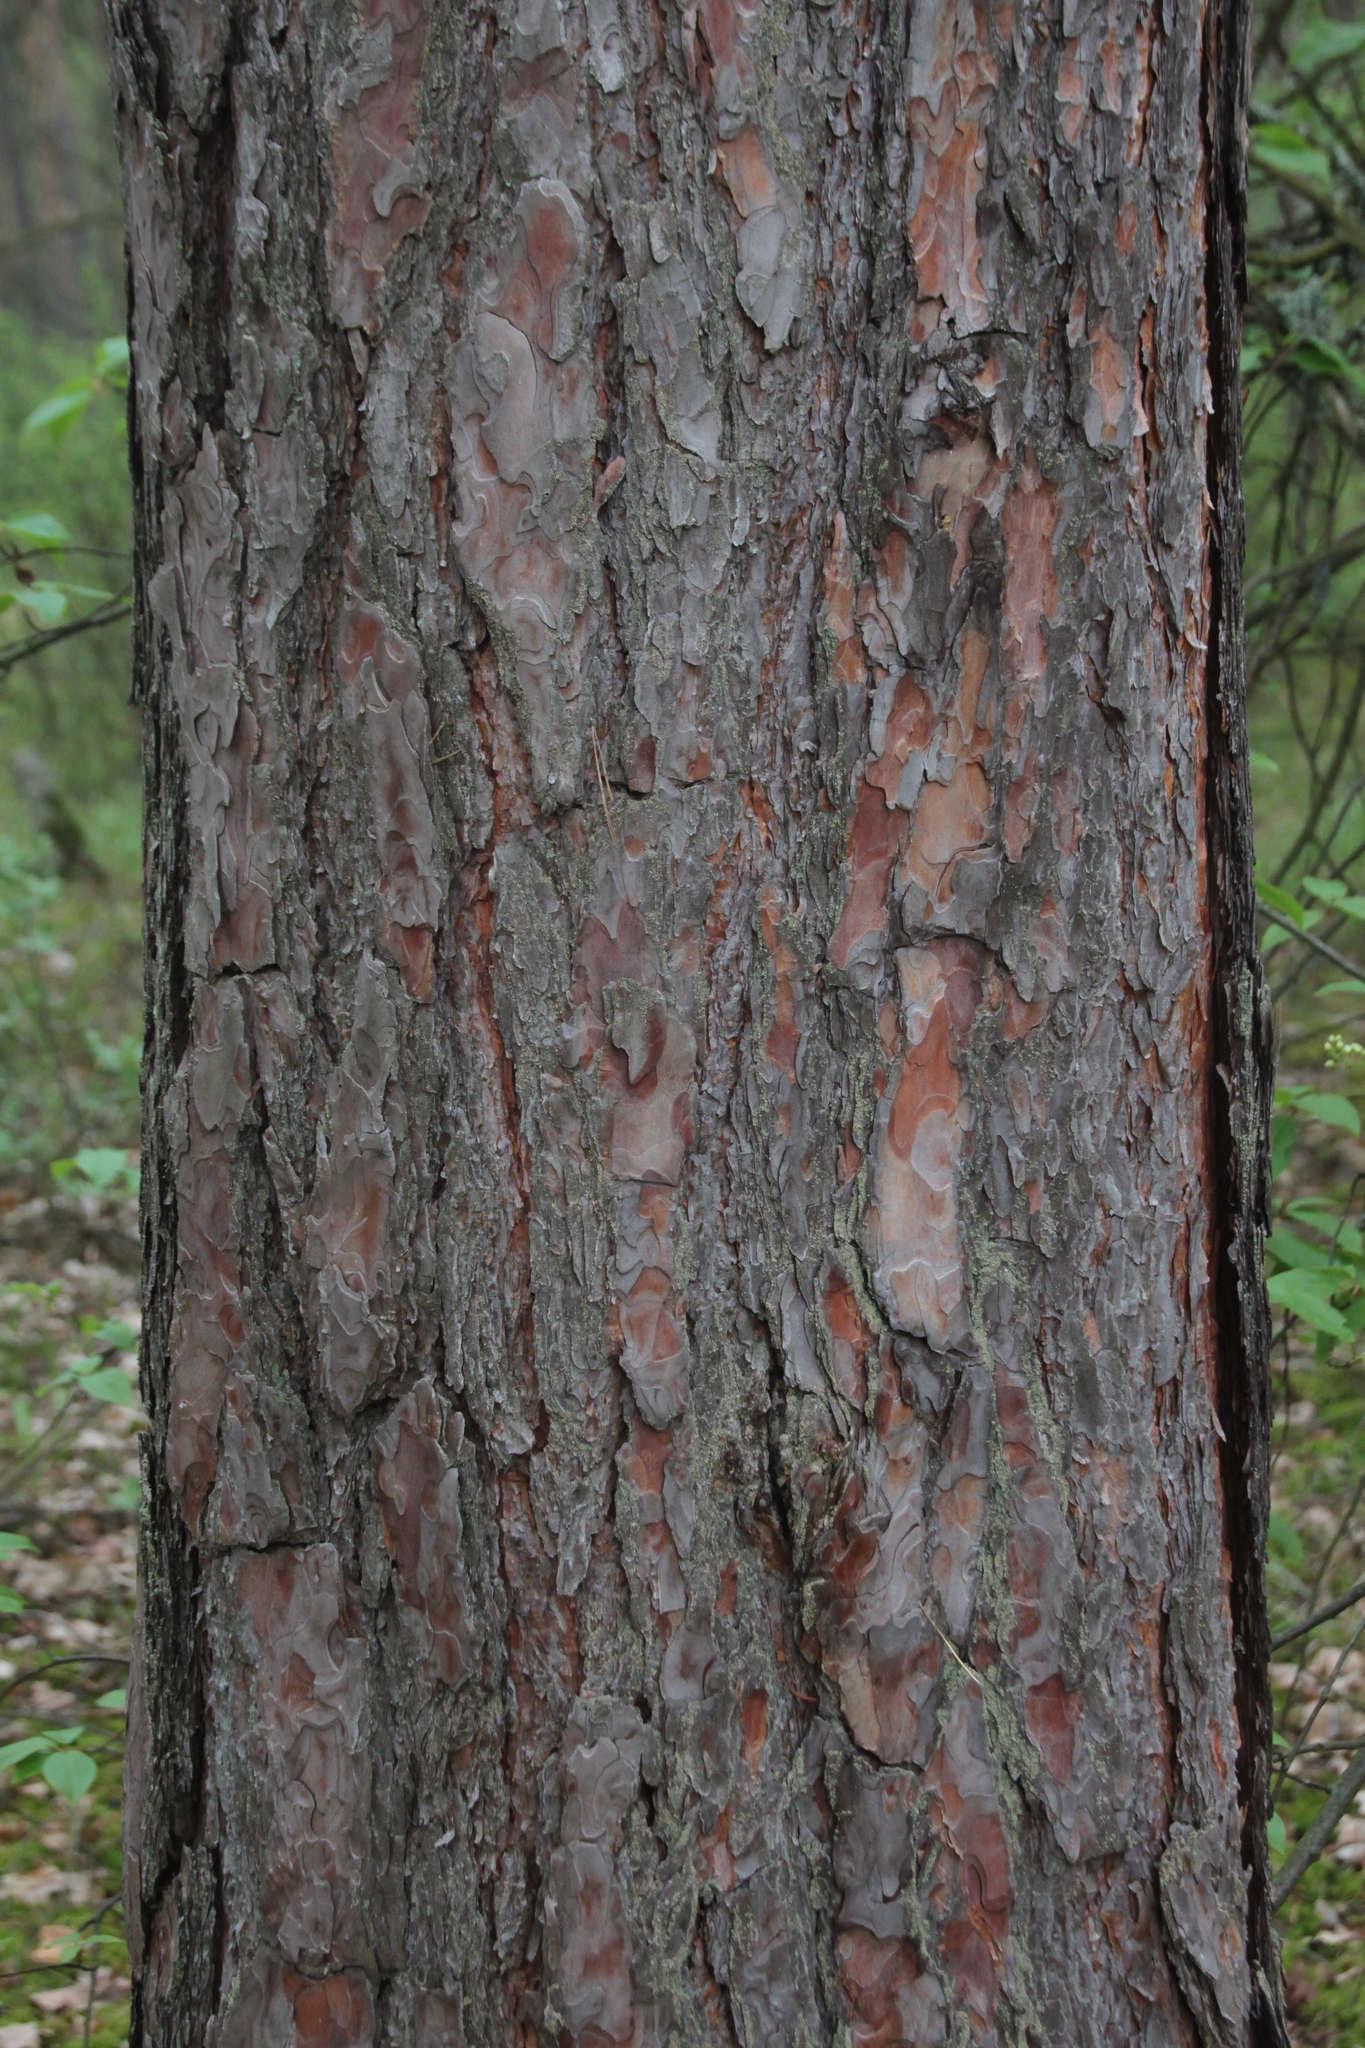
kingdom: Plantae
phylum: Tracheophyta
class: Pinopsida
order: Pinales
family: Pinaceae
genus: Pinus
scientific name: Pinus sylvestris
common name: Scots pine
